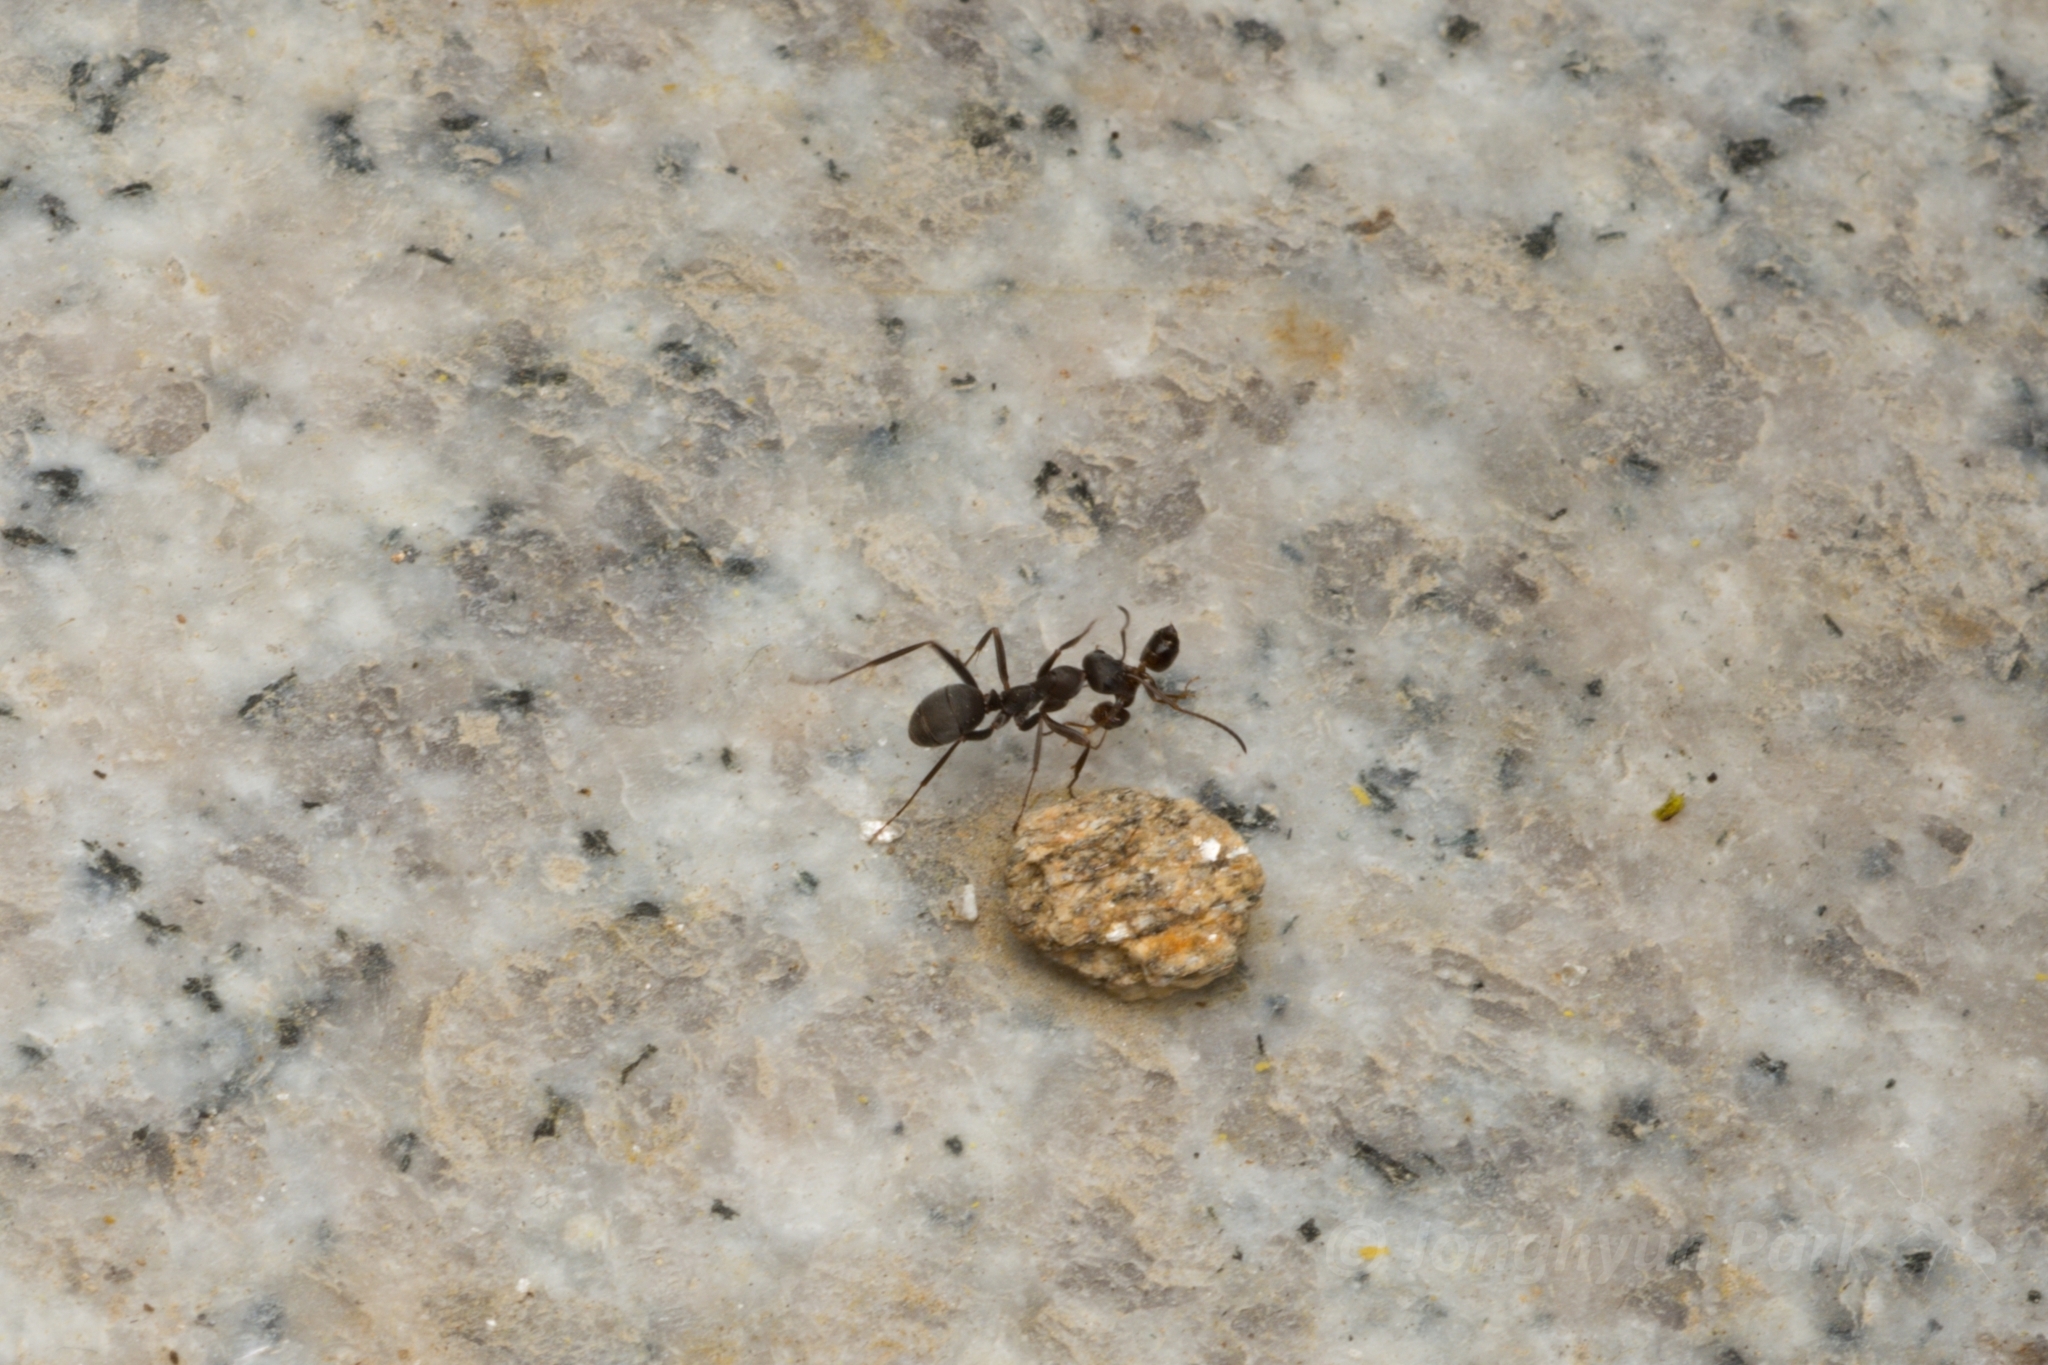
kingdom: Animalia
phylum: Arthropoda
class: Insecta
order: Hymenoptera
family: Formicidae
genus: Formica
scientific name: Formica japonica
